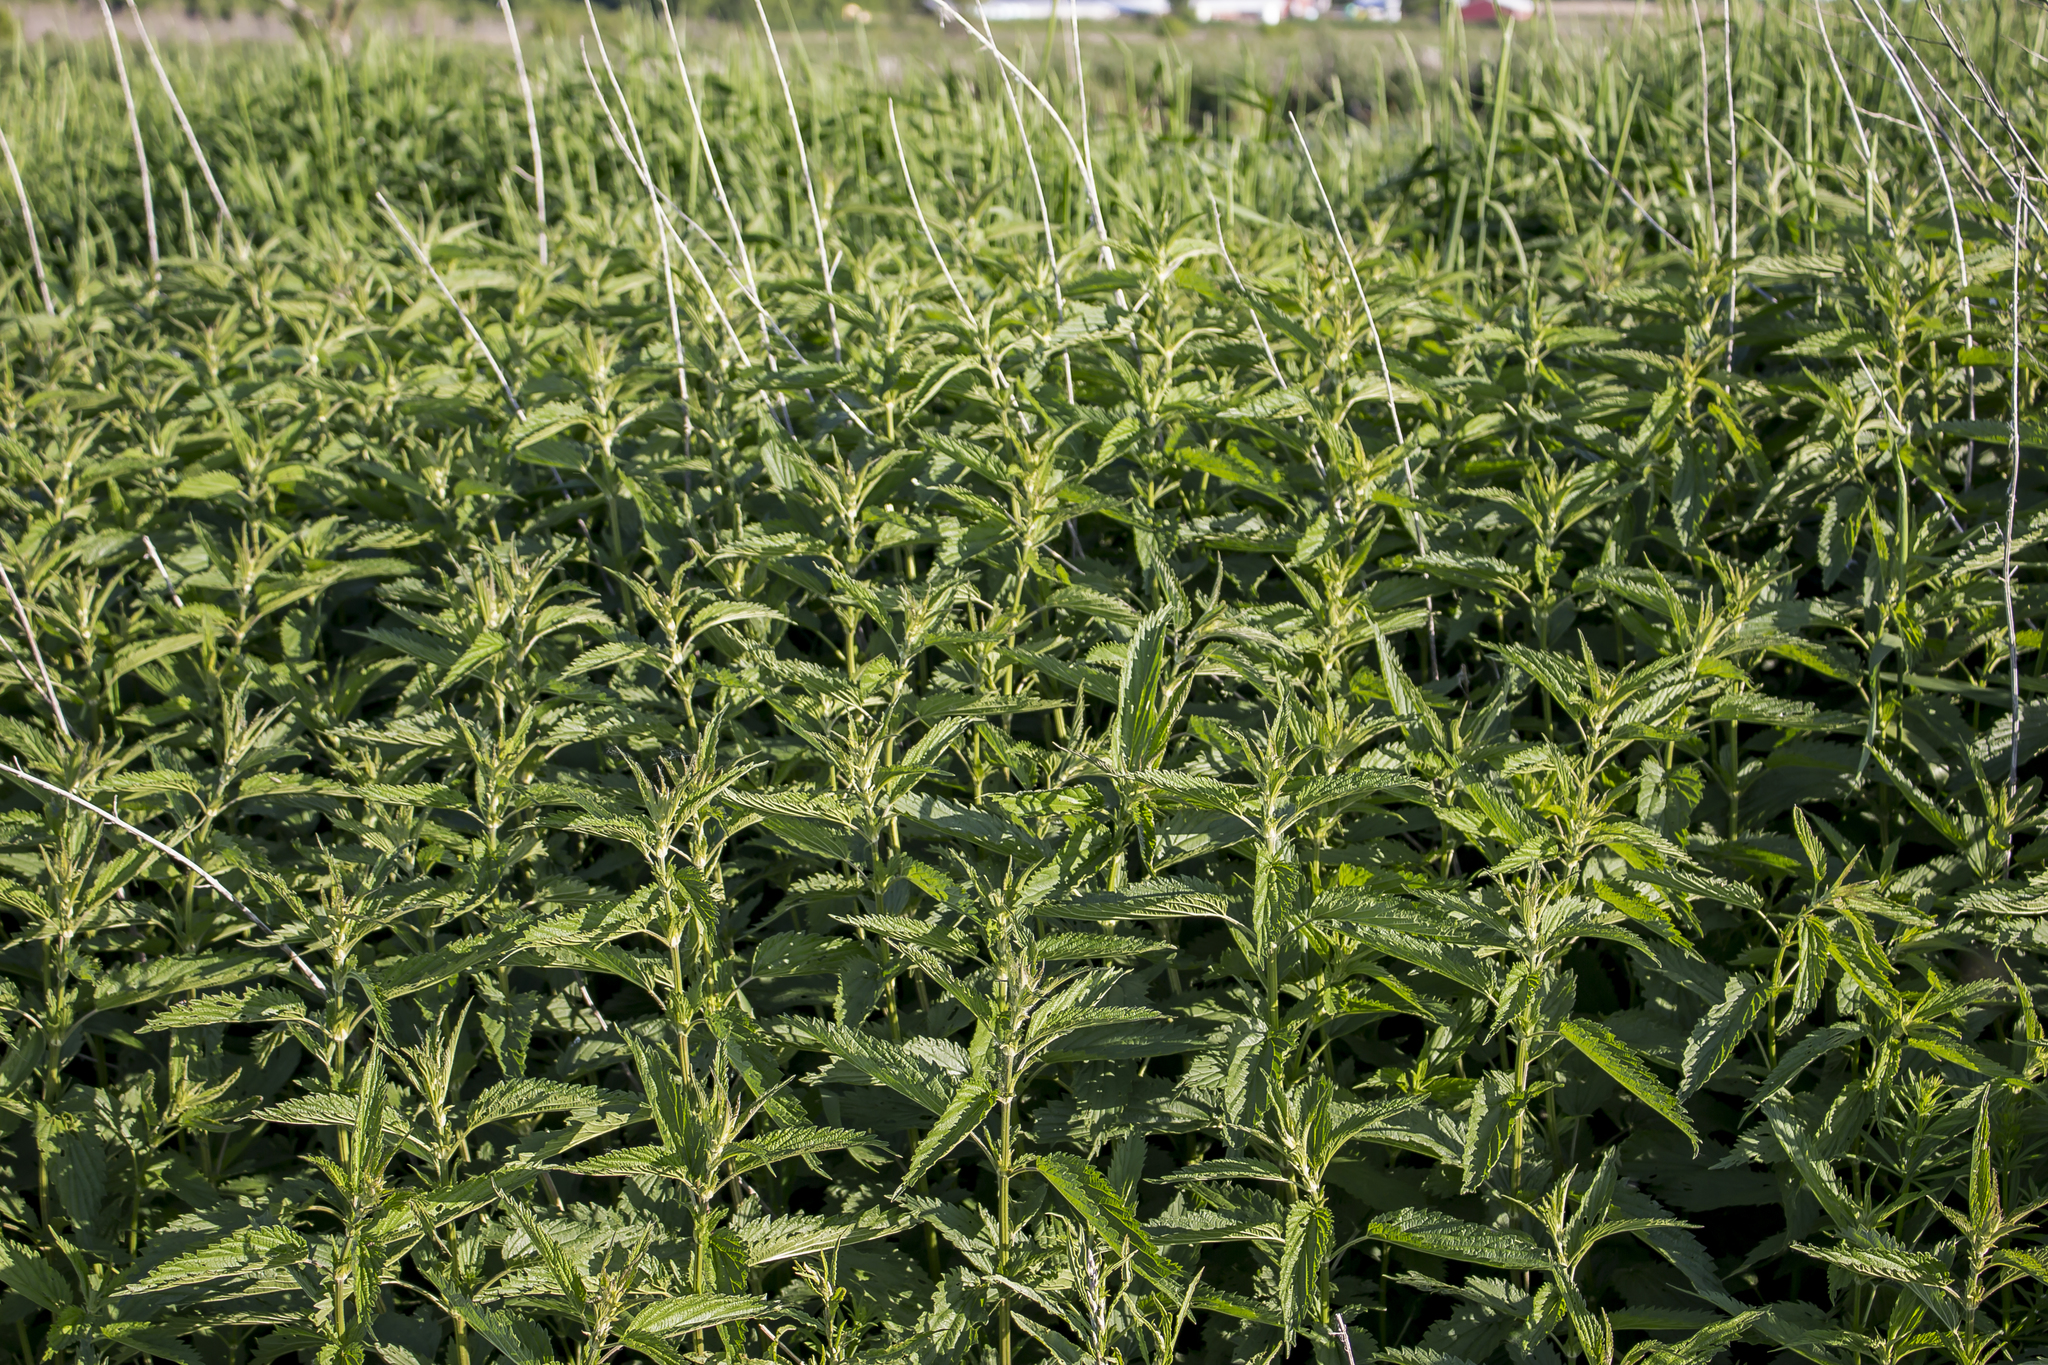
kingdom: Plantae
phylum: Tracheophyta
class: Magnoliopsida
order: Rosales
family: Urticaceae
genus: Urtica
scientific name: Urtica dioica
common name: Common nettle
